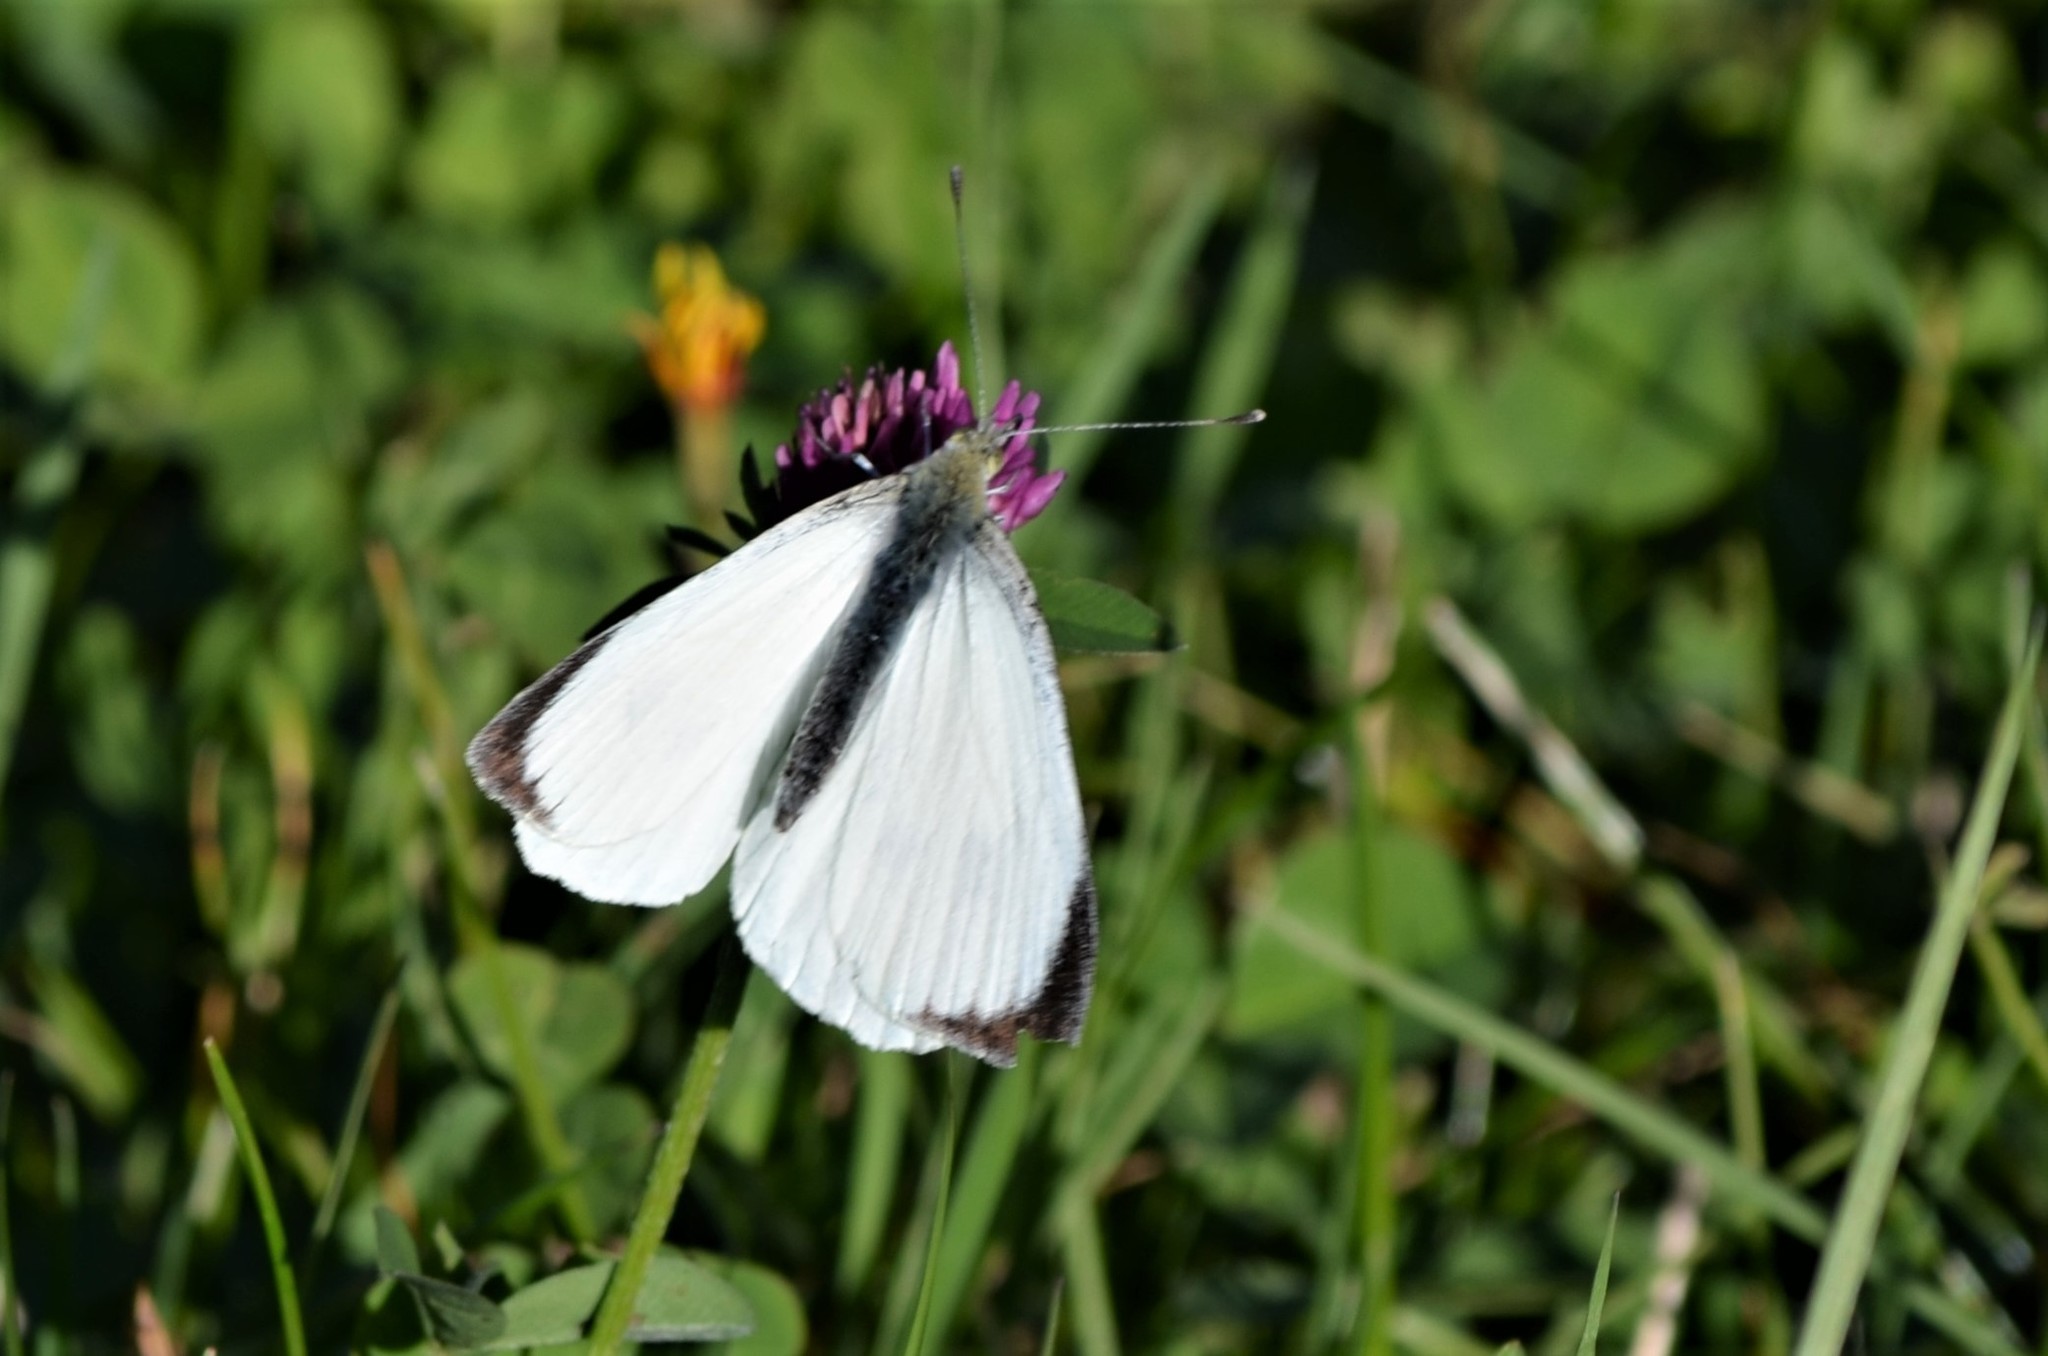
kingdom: Animalia
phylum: Arthropoda
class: Insecta
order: Lepidoptera
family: Pieridae
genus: Pieris
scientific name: Pieris brassicae
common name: Large white
